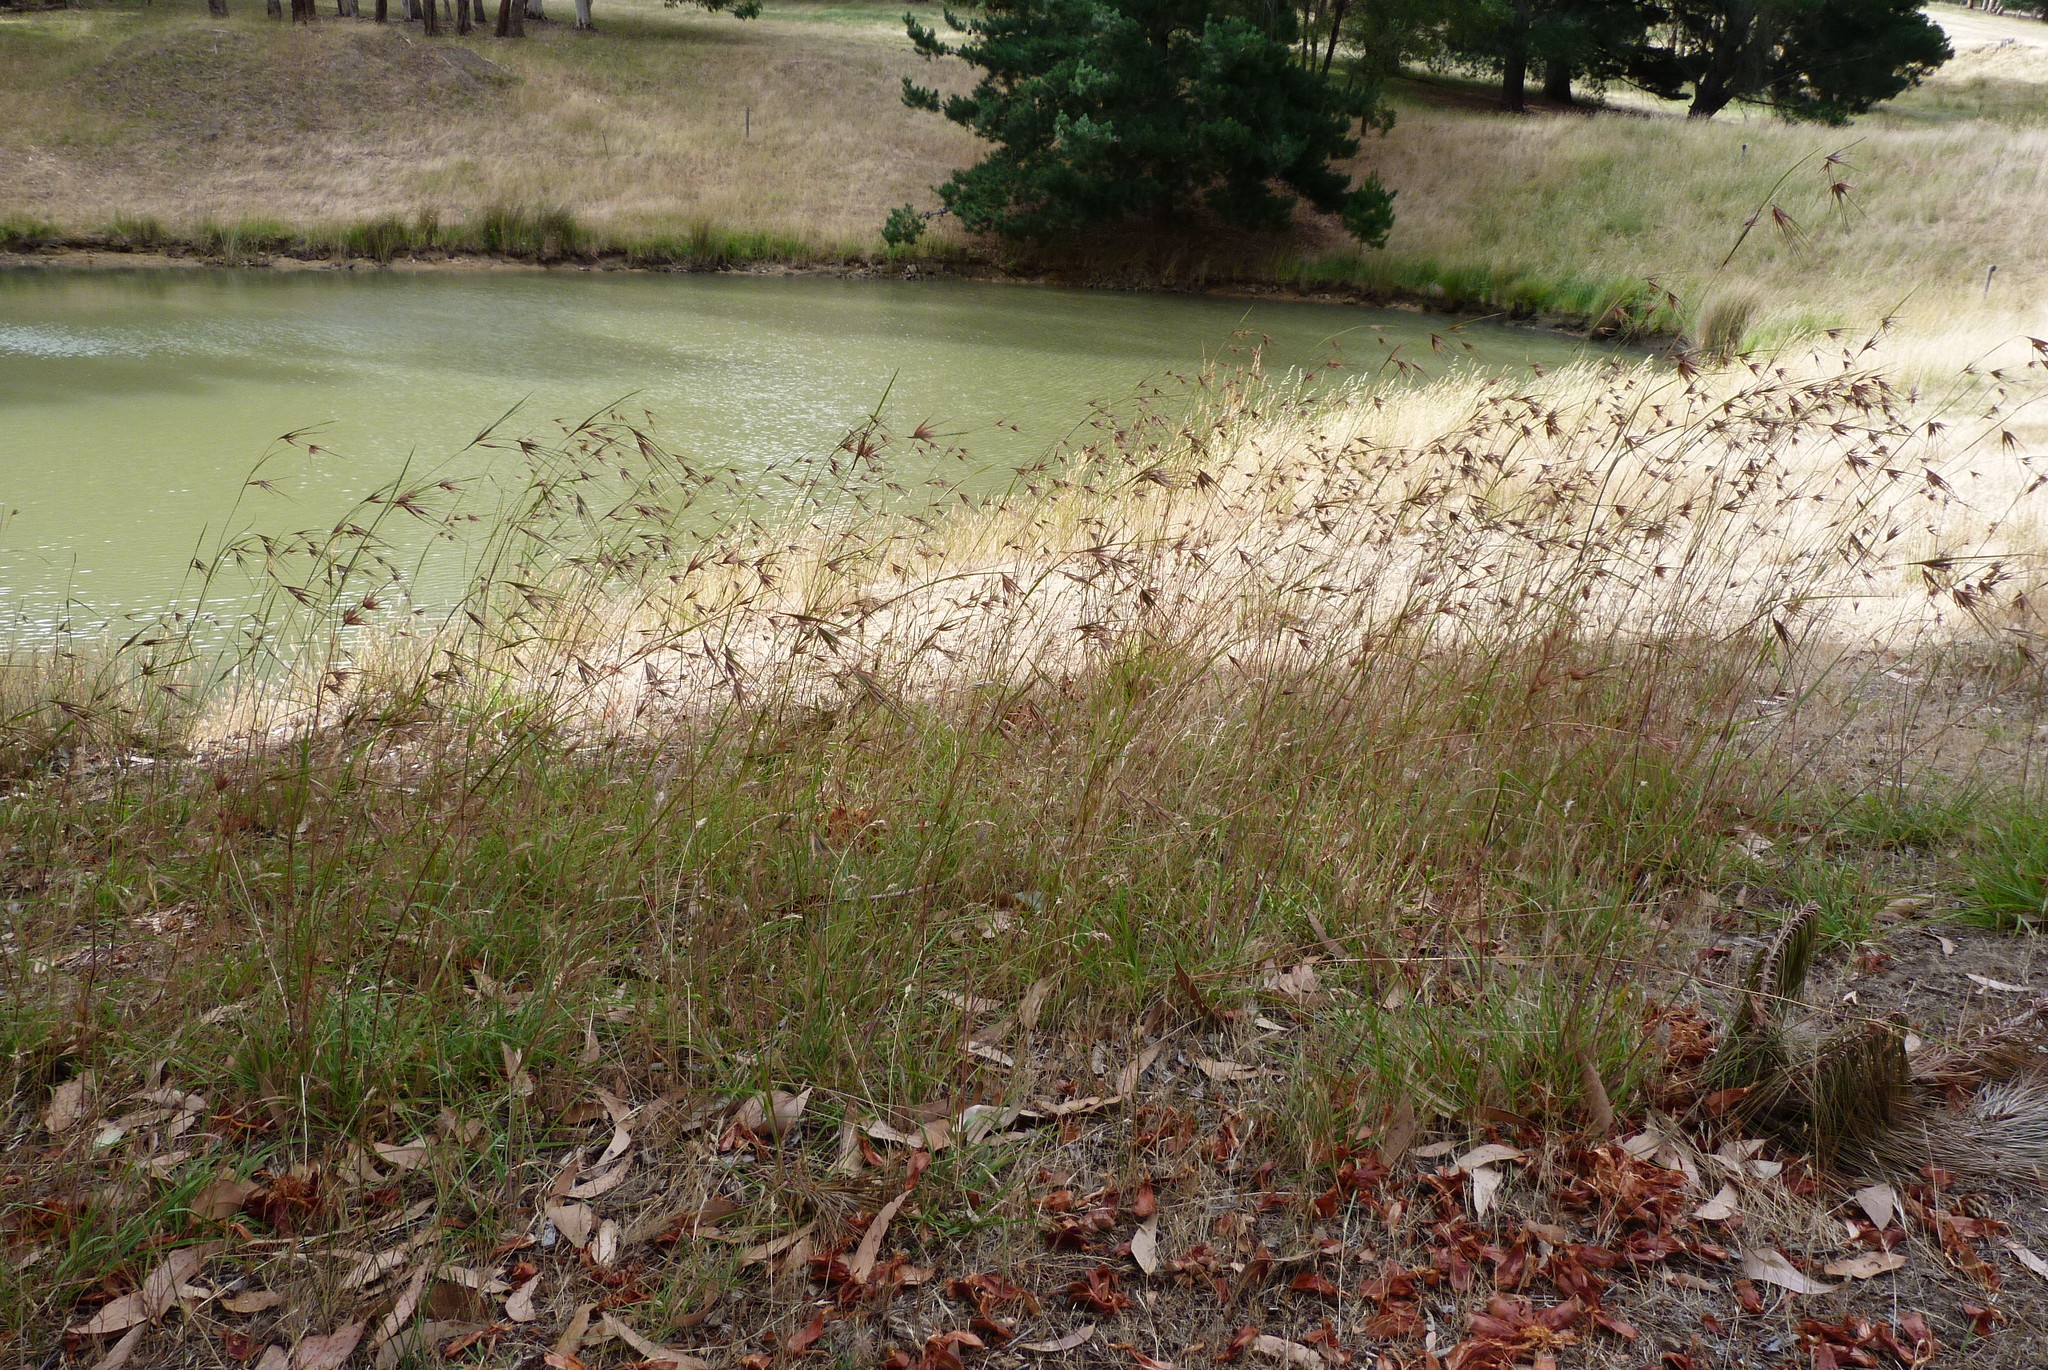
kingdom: Plantae
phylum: Tracheophyta
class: Liliopsida
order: Poales
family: Poaceae
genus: Themeda
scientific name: Themeda triandra
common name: Kangaroo grass
